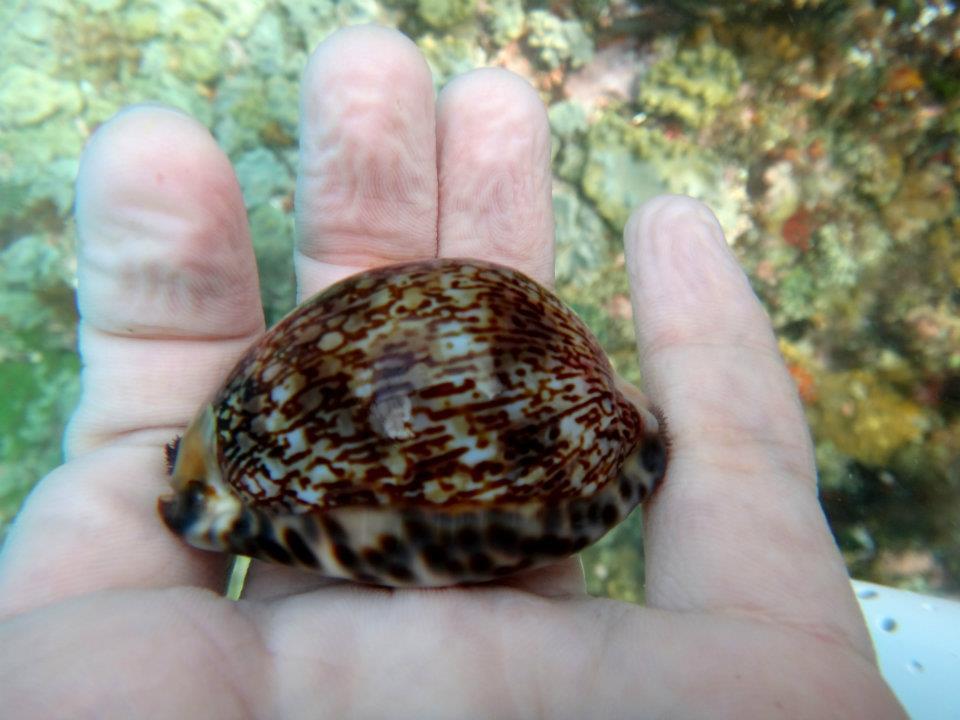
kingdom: Animalia
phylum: Mollusca
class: Gastropoda
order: Littorinimorpha
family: Cypraeidae
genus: Mauritia
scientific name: Mauritia arabica
